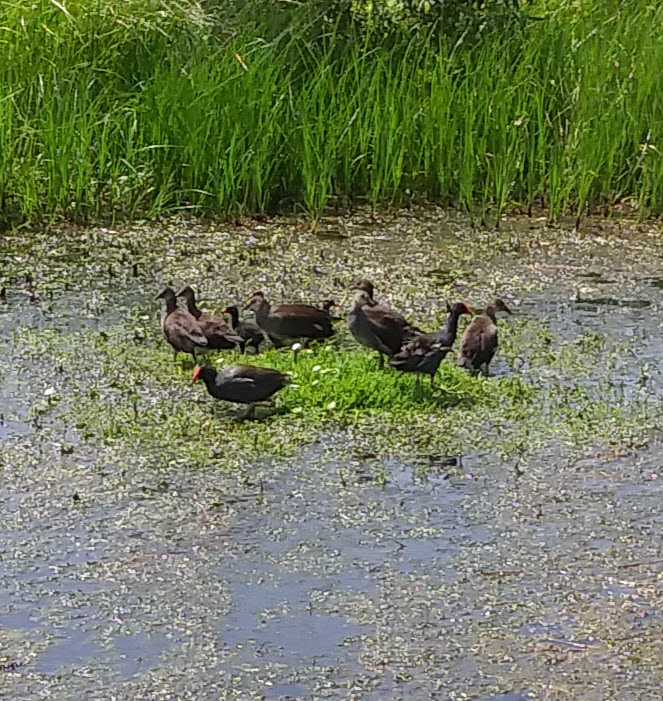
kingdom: Animalia
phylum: Chordata
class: Aves
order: Gruiformes
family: Rallidae
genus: Gallinula
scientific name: Gallinula chloropus
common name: Common moorhen
